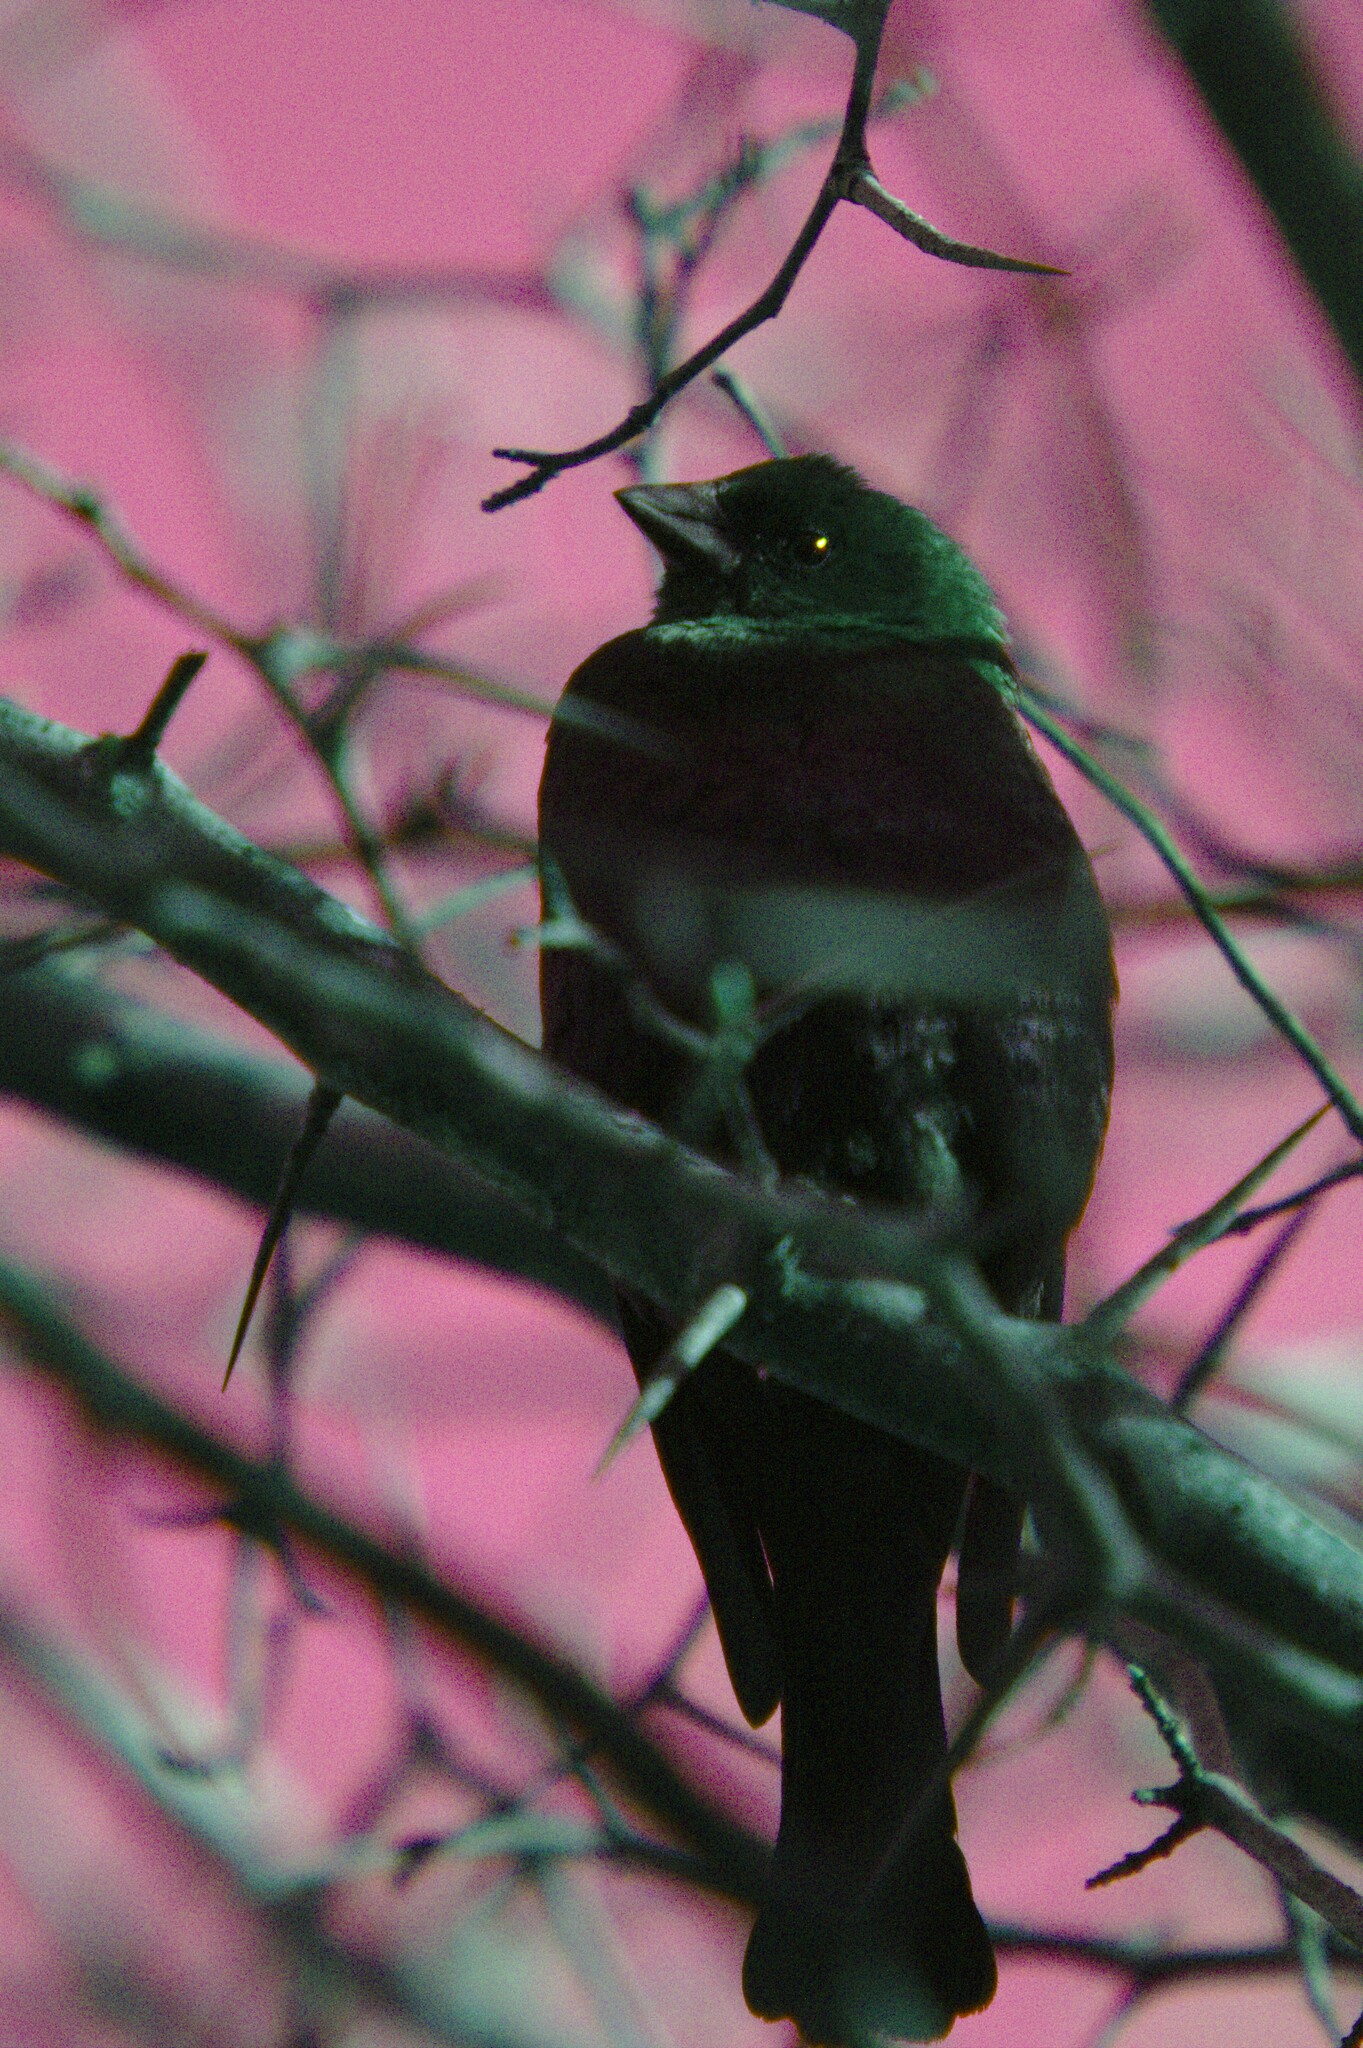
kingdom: Animalia
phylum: Chordata
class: Aves
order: Passeriformes
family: Icteridae
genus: Molothrus
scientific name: Molothrus ater
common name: Brown-headed cowbird
